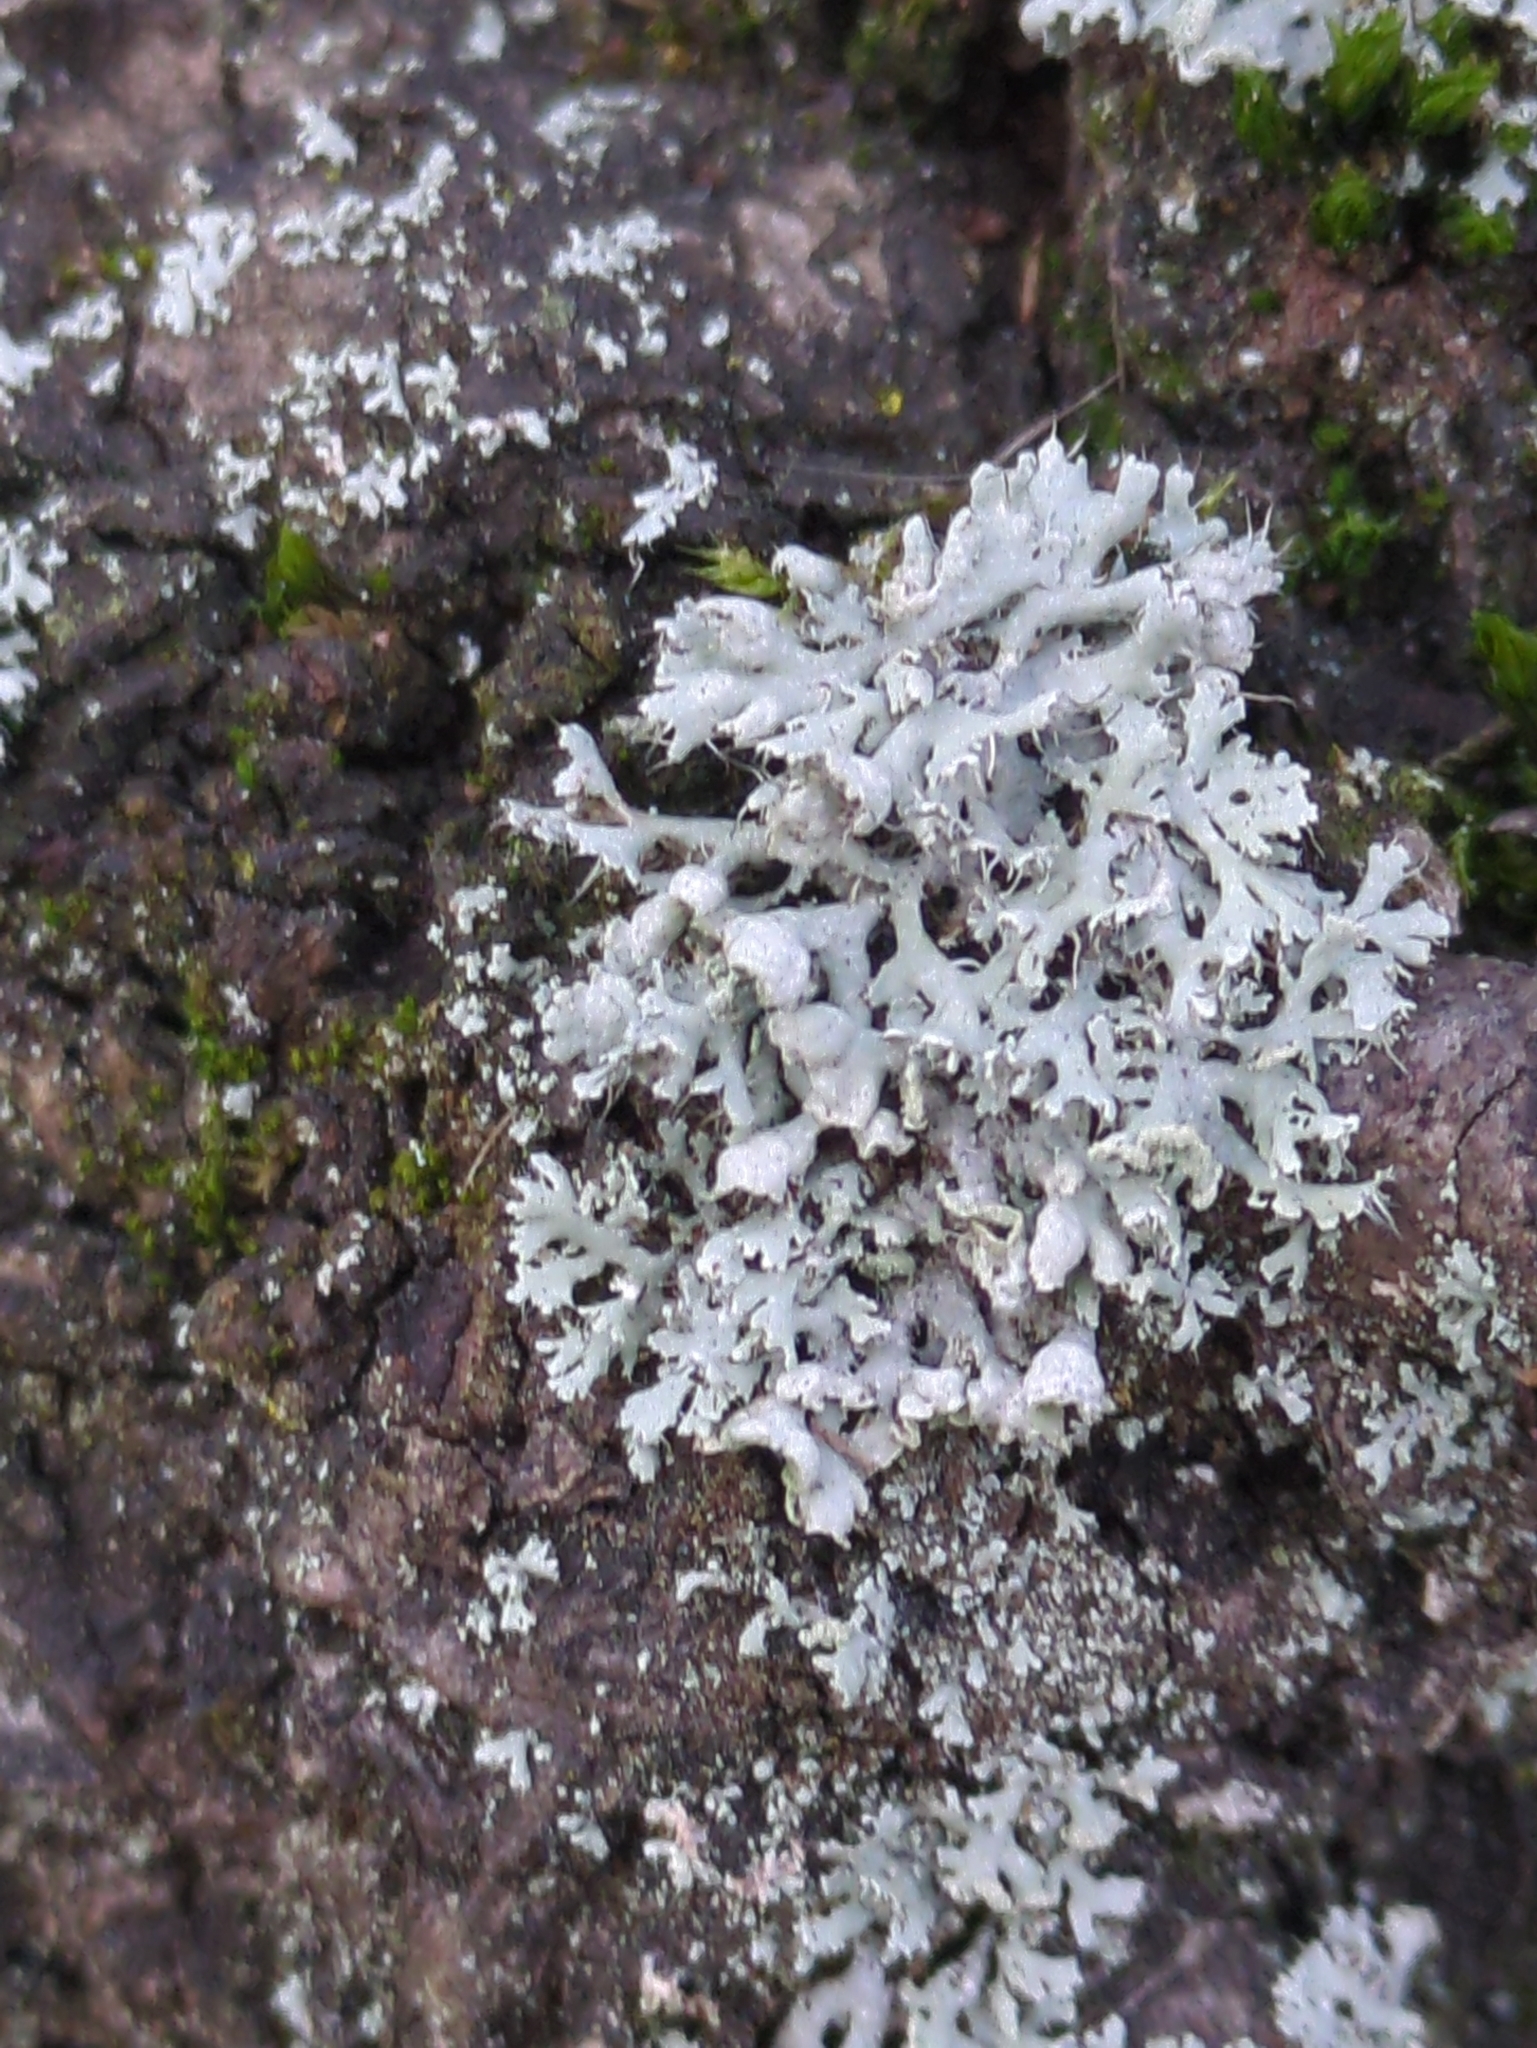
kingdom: Fungi
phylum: Ascomycota
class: Lecanoromycetes
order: Caliciales
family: Physciaceae
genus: Physcia
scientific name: Physcia adscendens
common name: Hooded rosette lichen
